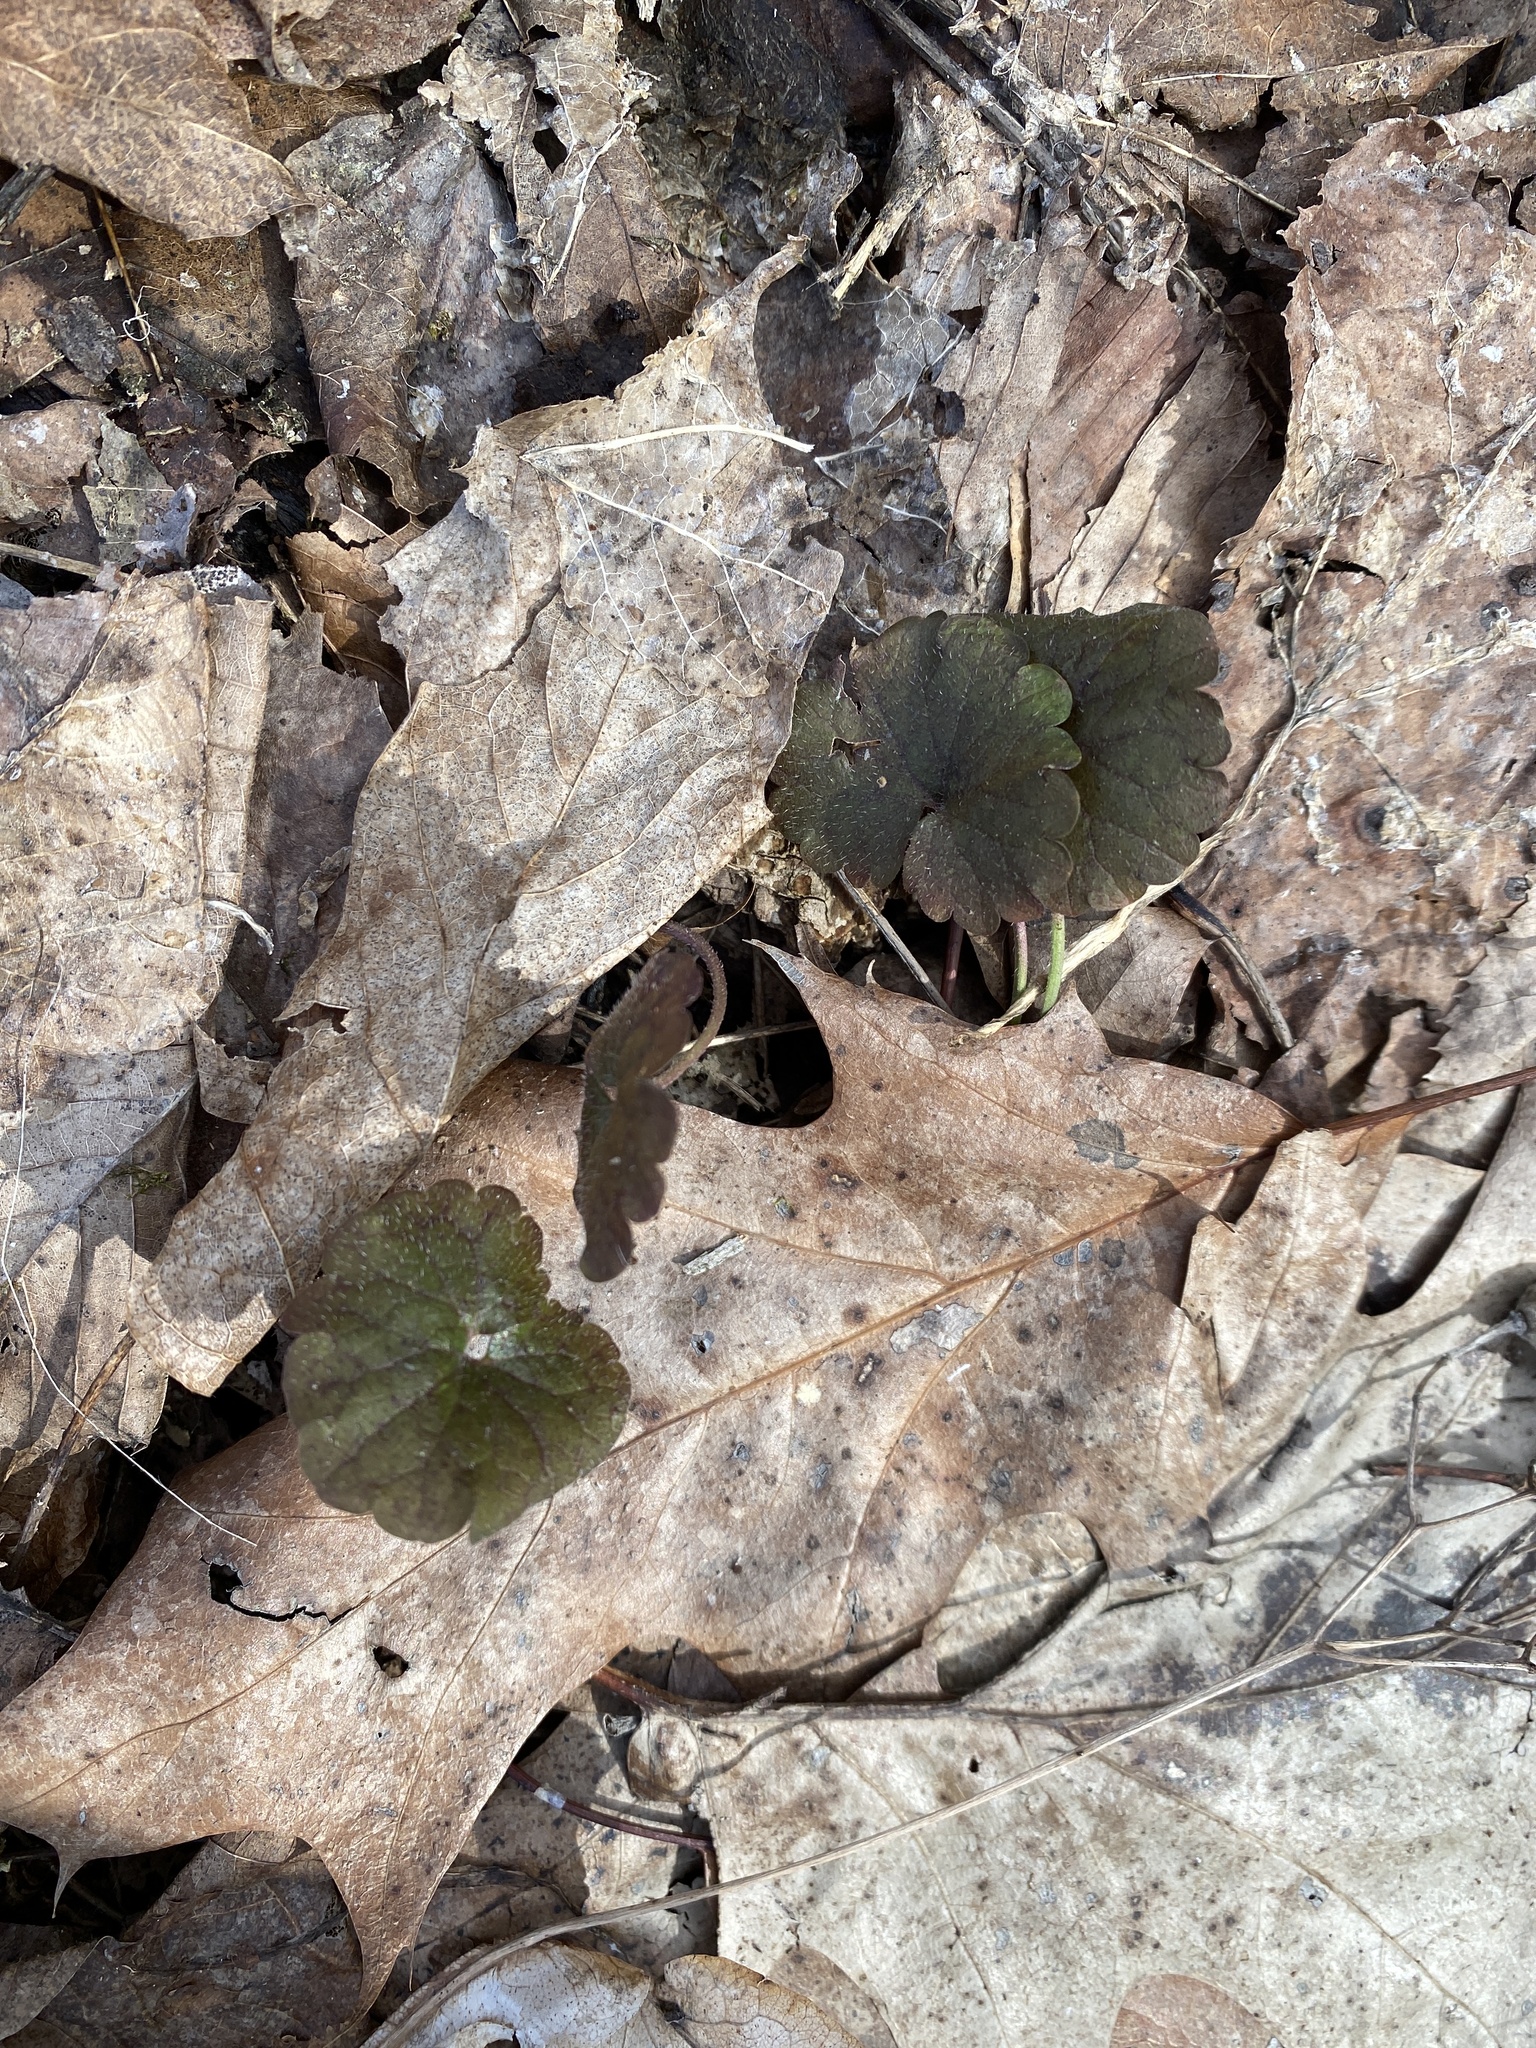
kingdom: Plantae
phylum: Tracheophyta
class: Magnoliopsida
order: Lamiales
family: Lamiaceae
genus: Glechoma
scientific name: Glechoma hederacea
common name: Ground ivy
